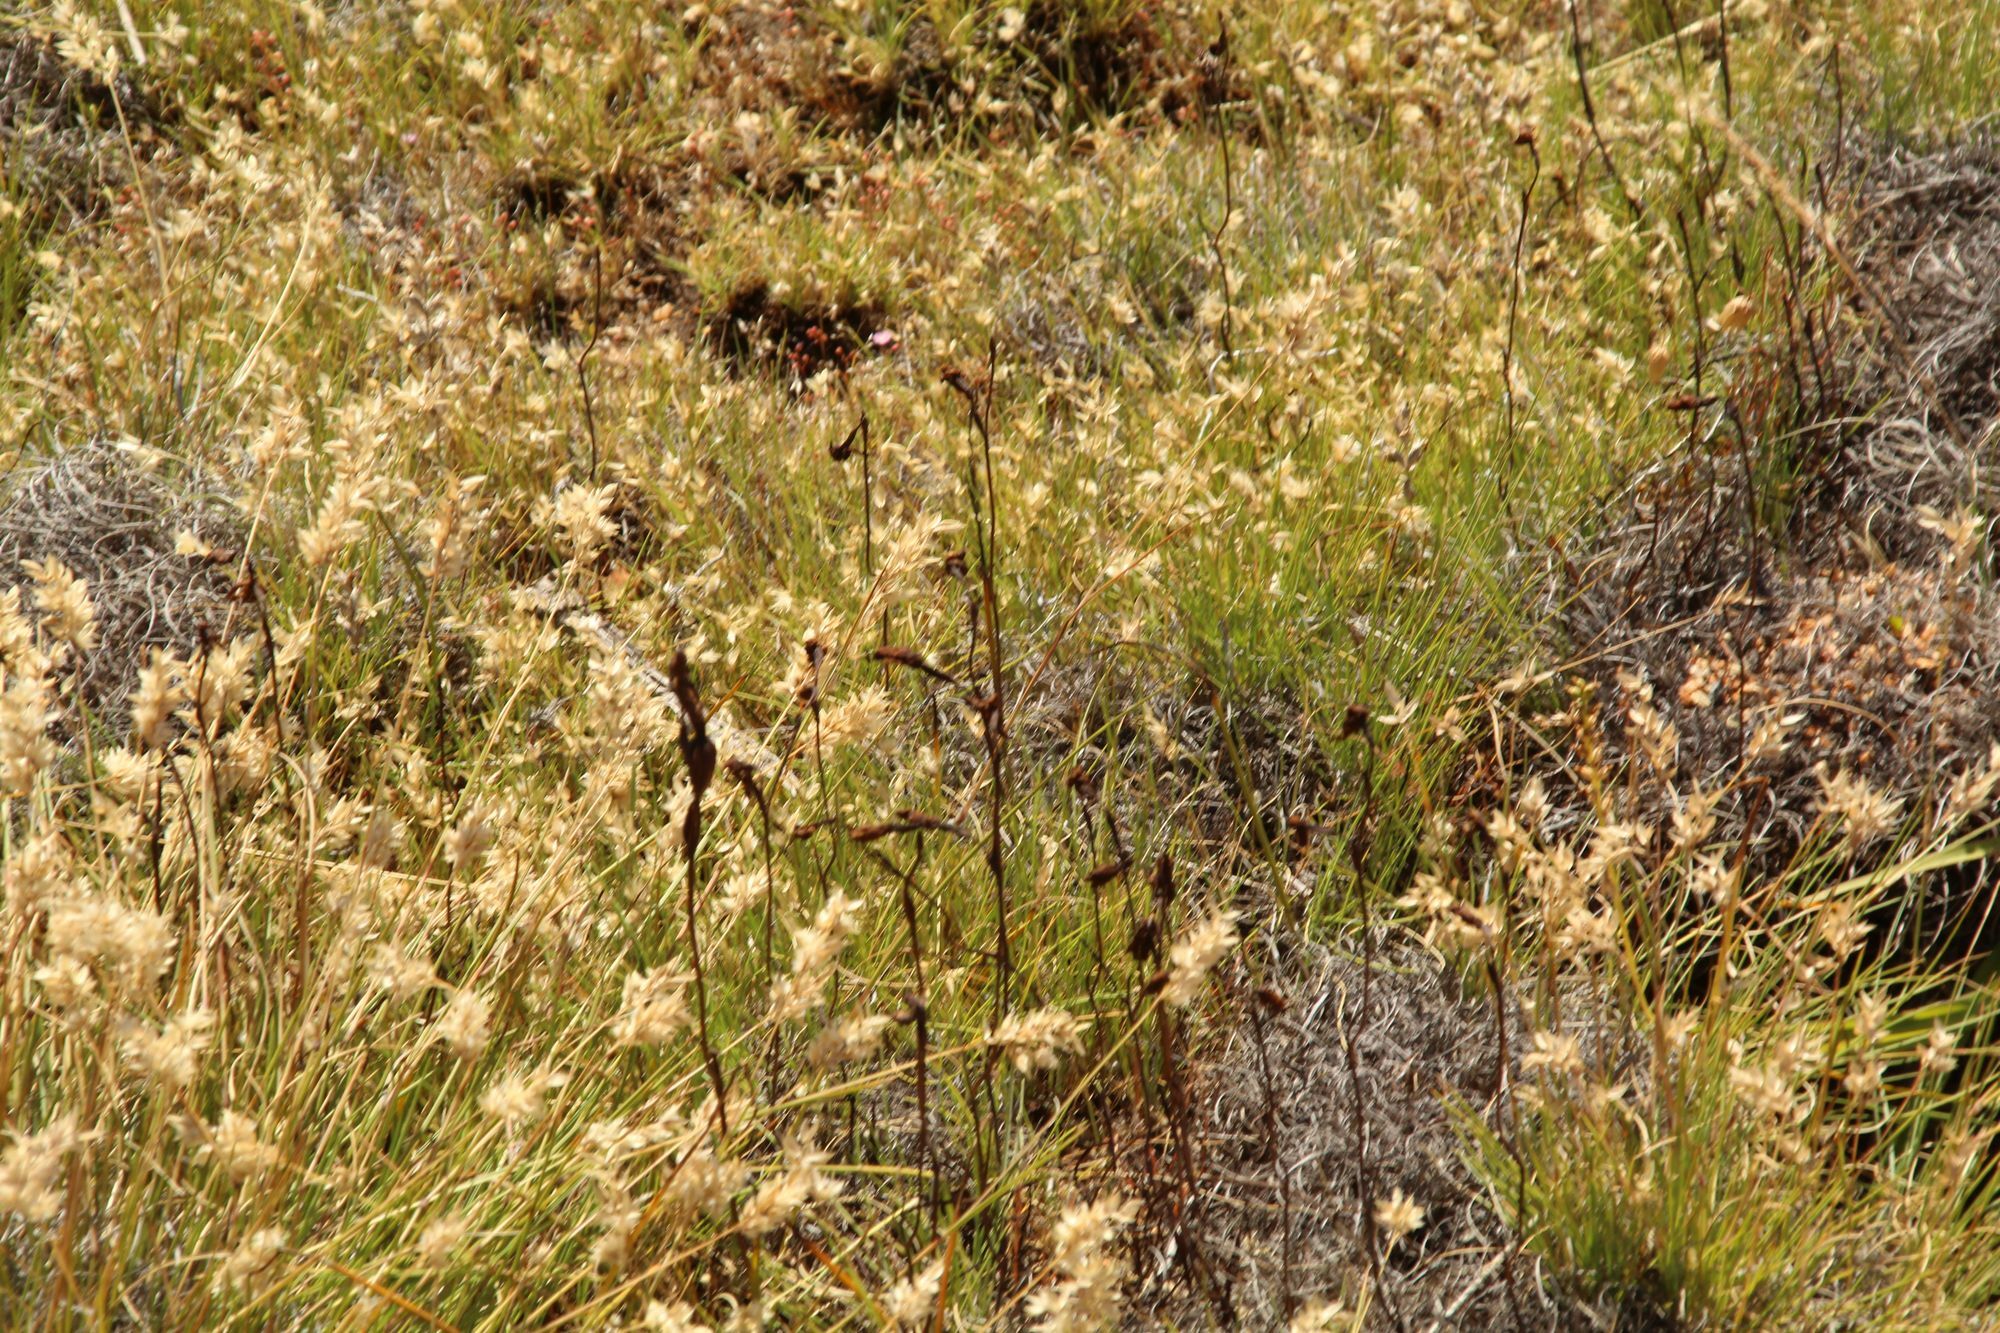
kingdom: Plantae
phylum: Tracheophyta
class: Liliopsida
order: Asparagales
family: Orchidaceae
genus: Thelymitra
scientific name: Thelymitra antennifera
